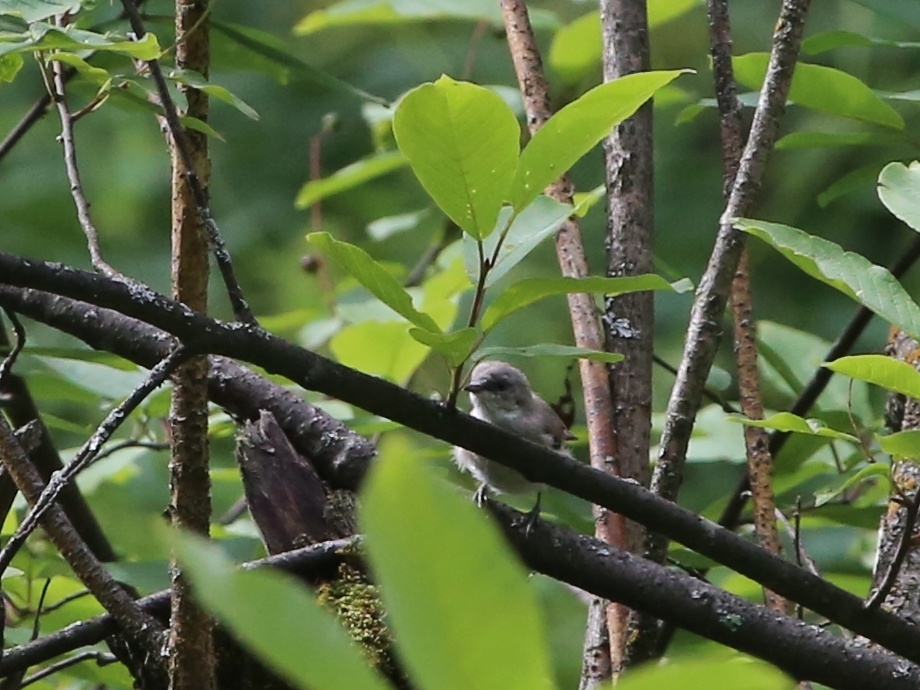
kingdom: Animalia
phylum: Chordata
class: Aves
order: Passeriformes
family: Sylviidae
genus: Sylvia
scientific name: Sylvia curruca
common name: Lesser whitethroat
